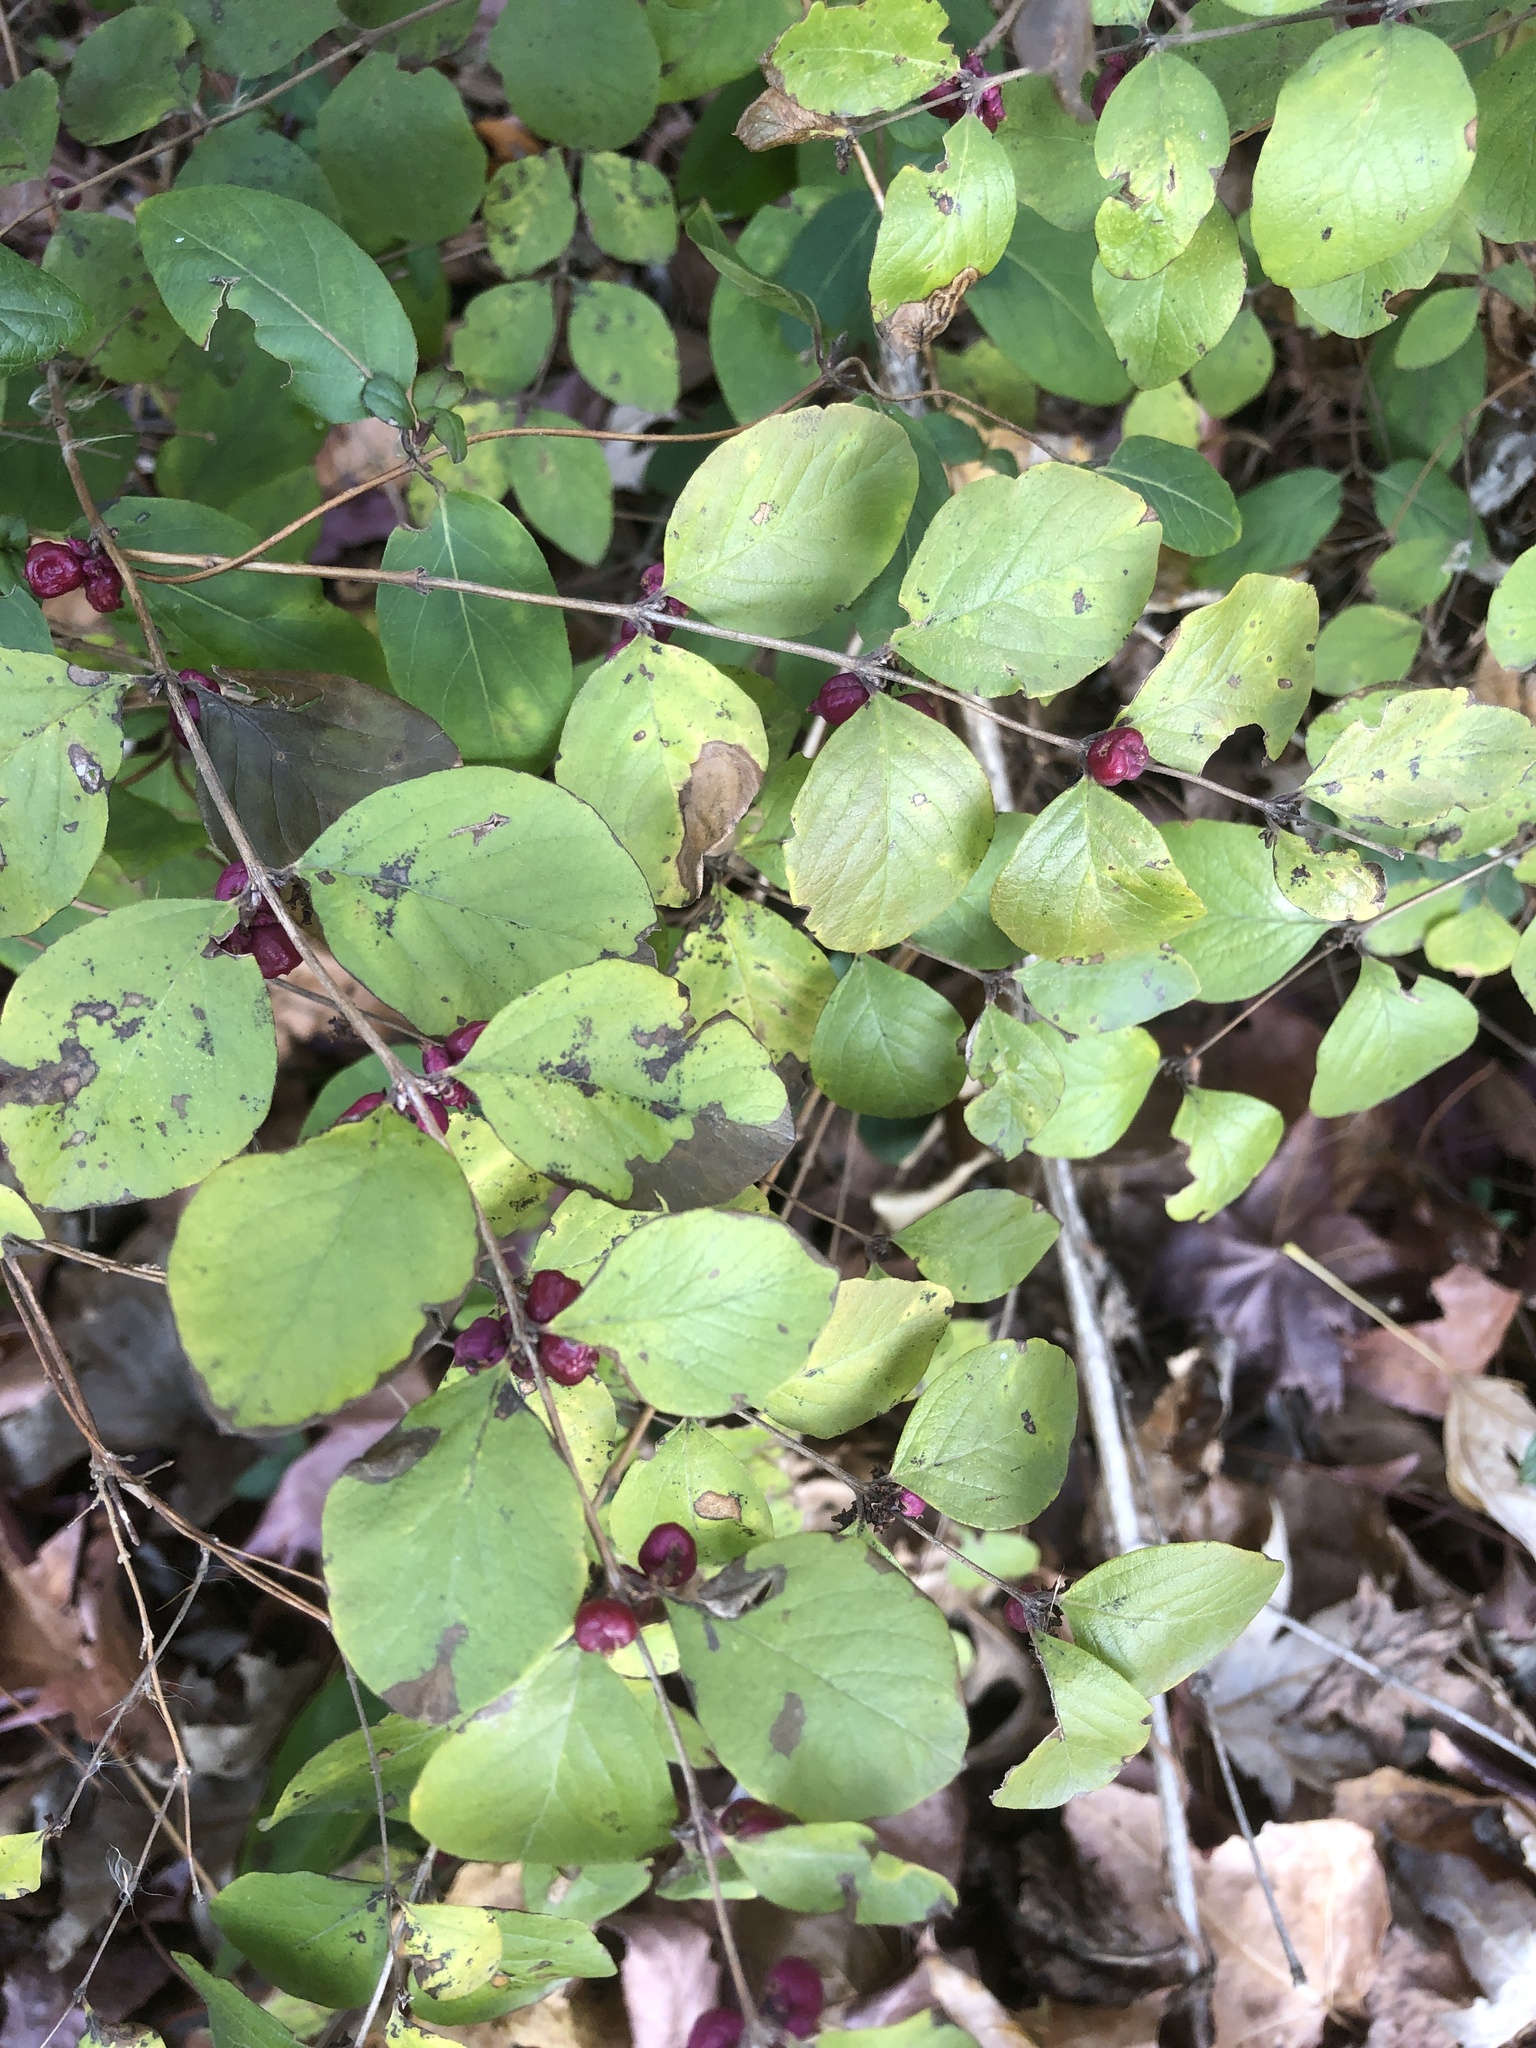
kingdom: Plantae
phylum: Tracheophyta
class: Magnoliopsida
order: Dipsacales
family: Caprifoliaceae
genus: Symphoricarpos
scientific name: Symphoricarpos orbiculatus
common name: Coralberry
